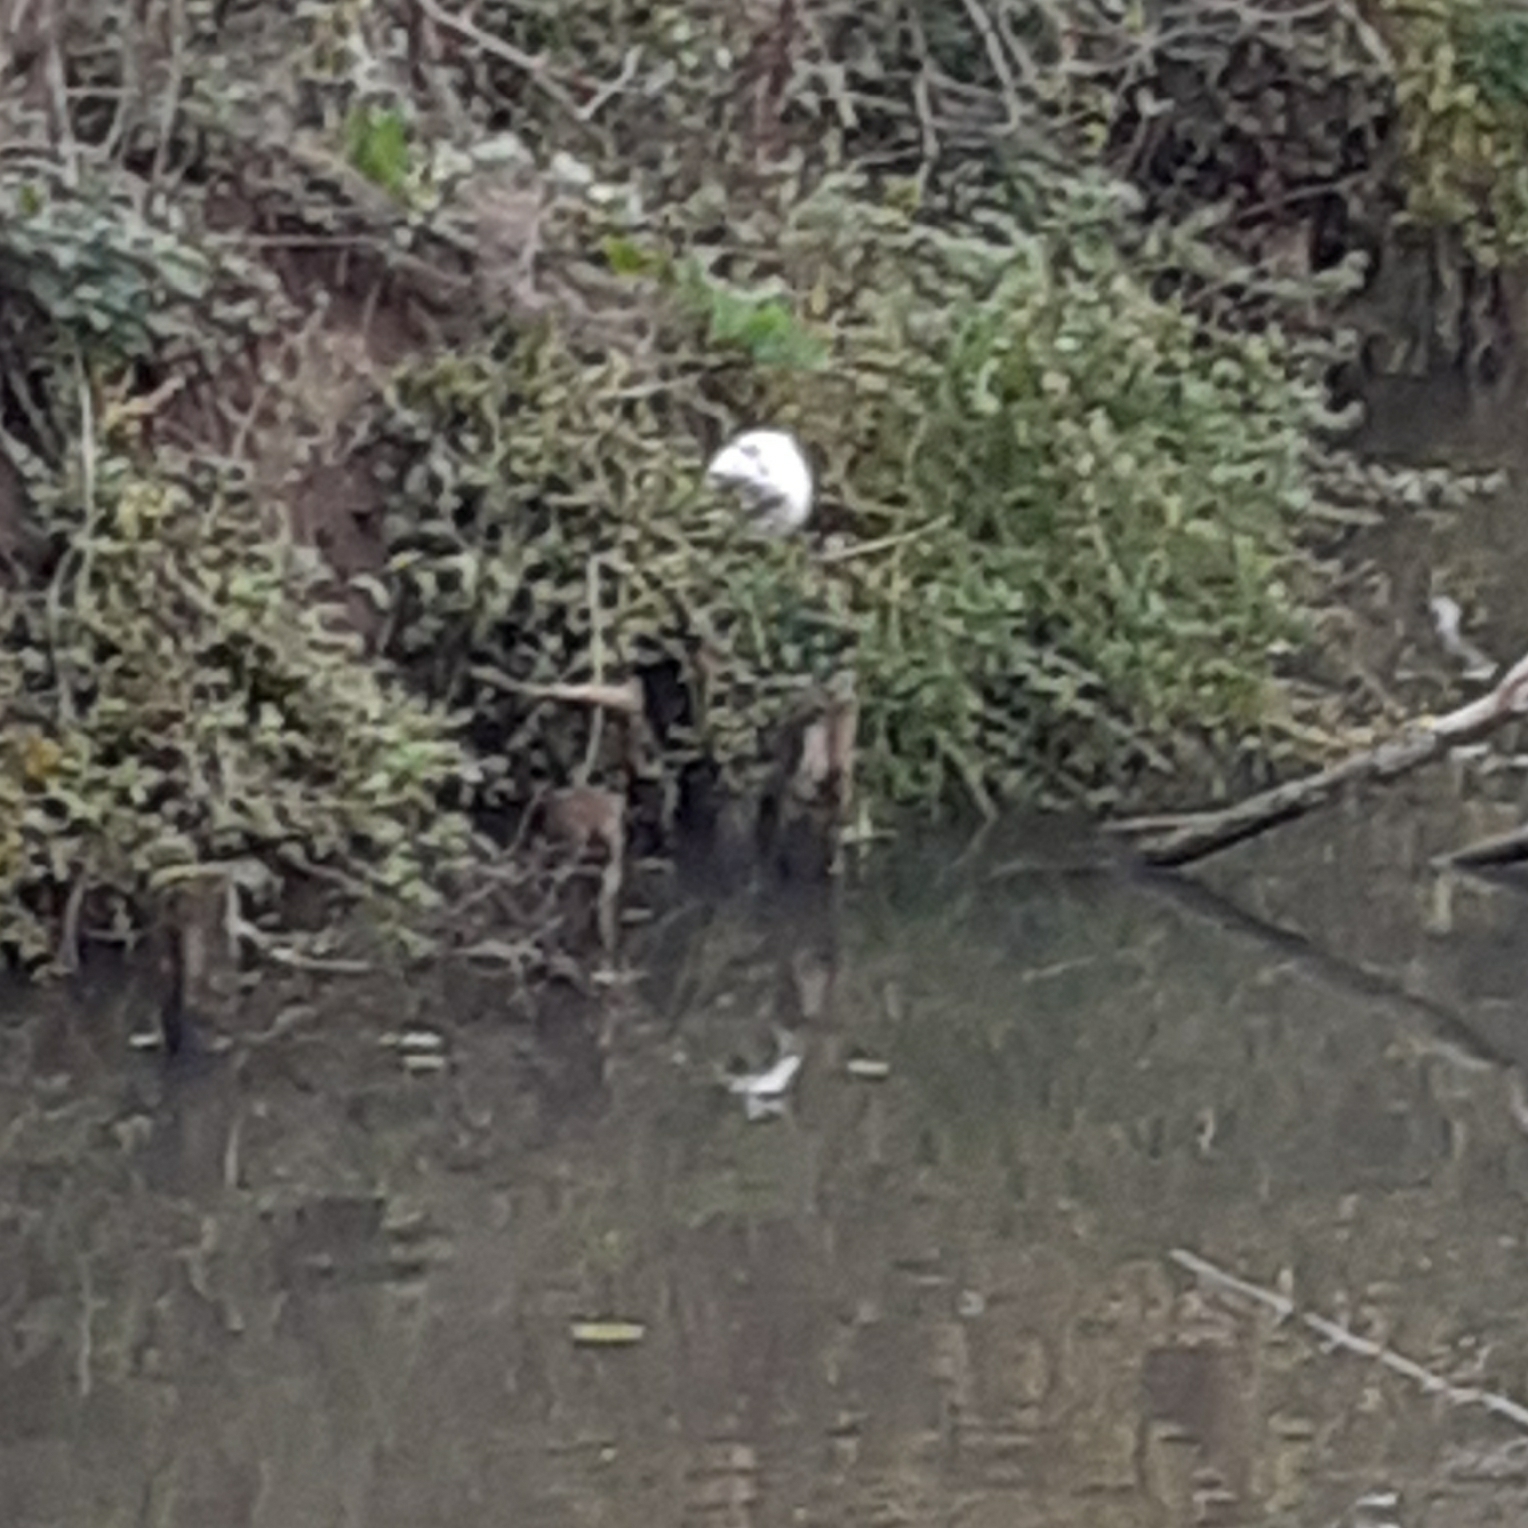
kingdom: Animalia
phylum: Chordata
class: Mammalia
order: Rodentia
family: Myocastoridae
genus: Myocastor
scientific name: Myocastor coypus
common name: Coypu
